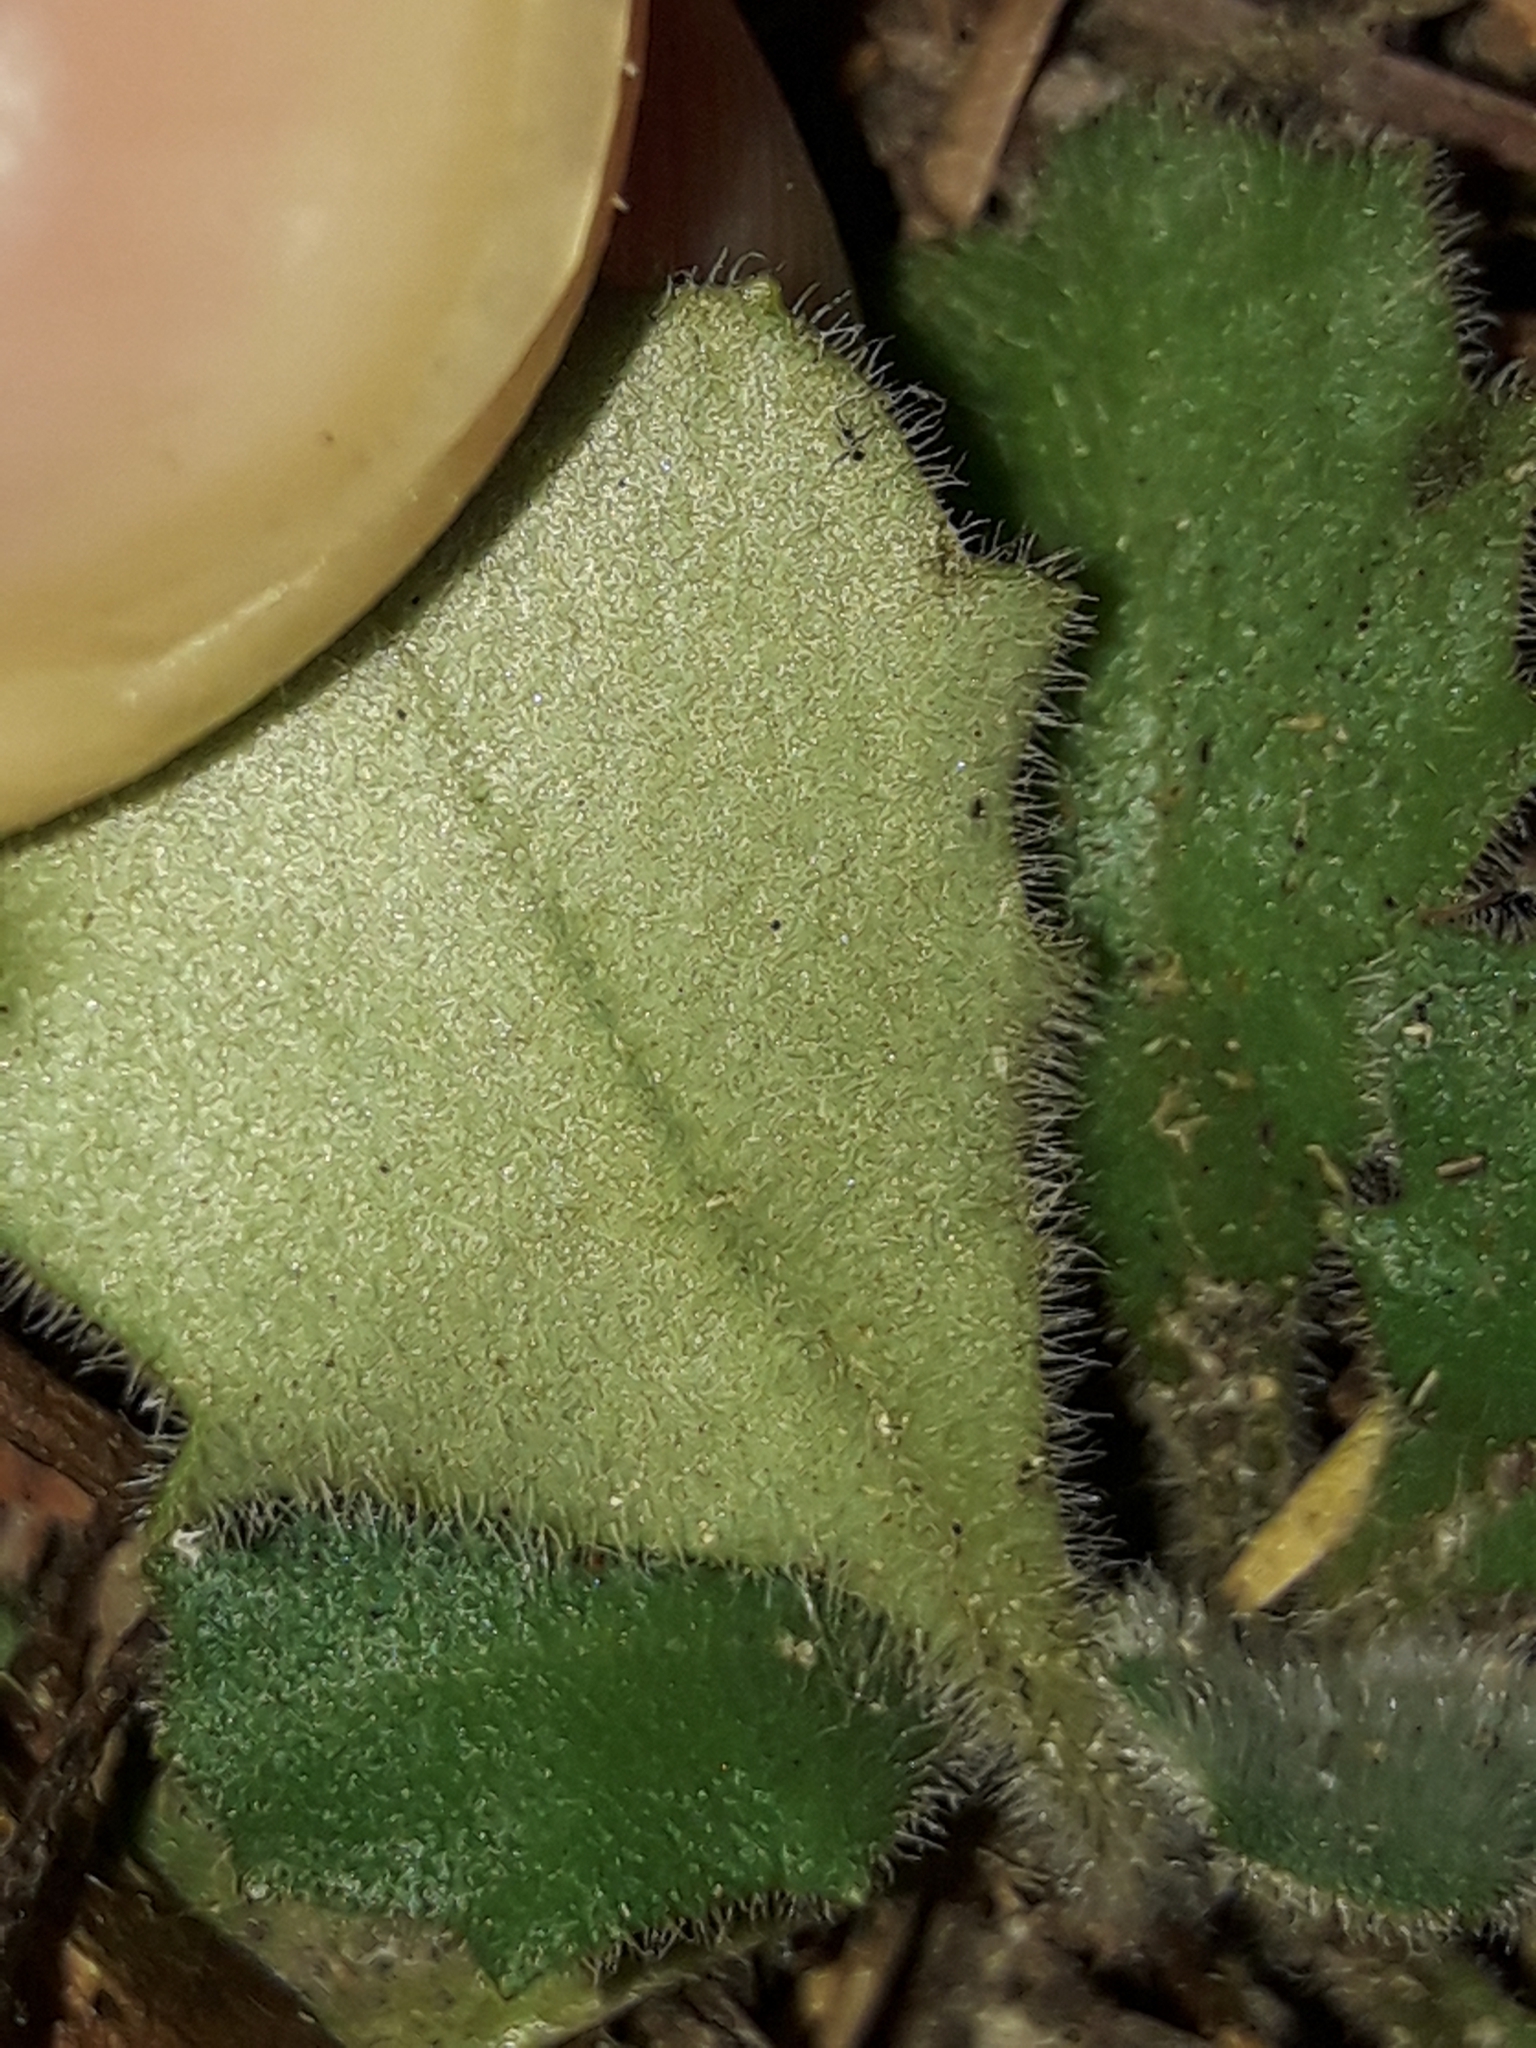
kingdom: Plantae
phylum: Tracheophyta
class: Magnoliopsida
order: Asterales
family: Asteraceae
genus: Lagenophora
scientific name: Lagenophora sublyrata ter
